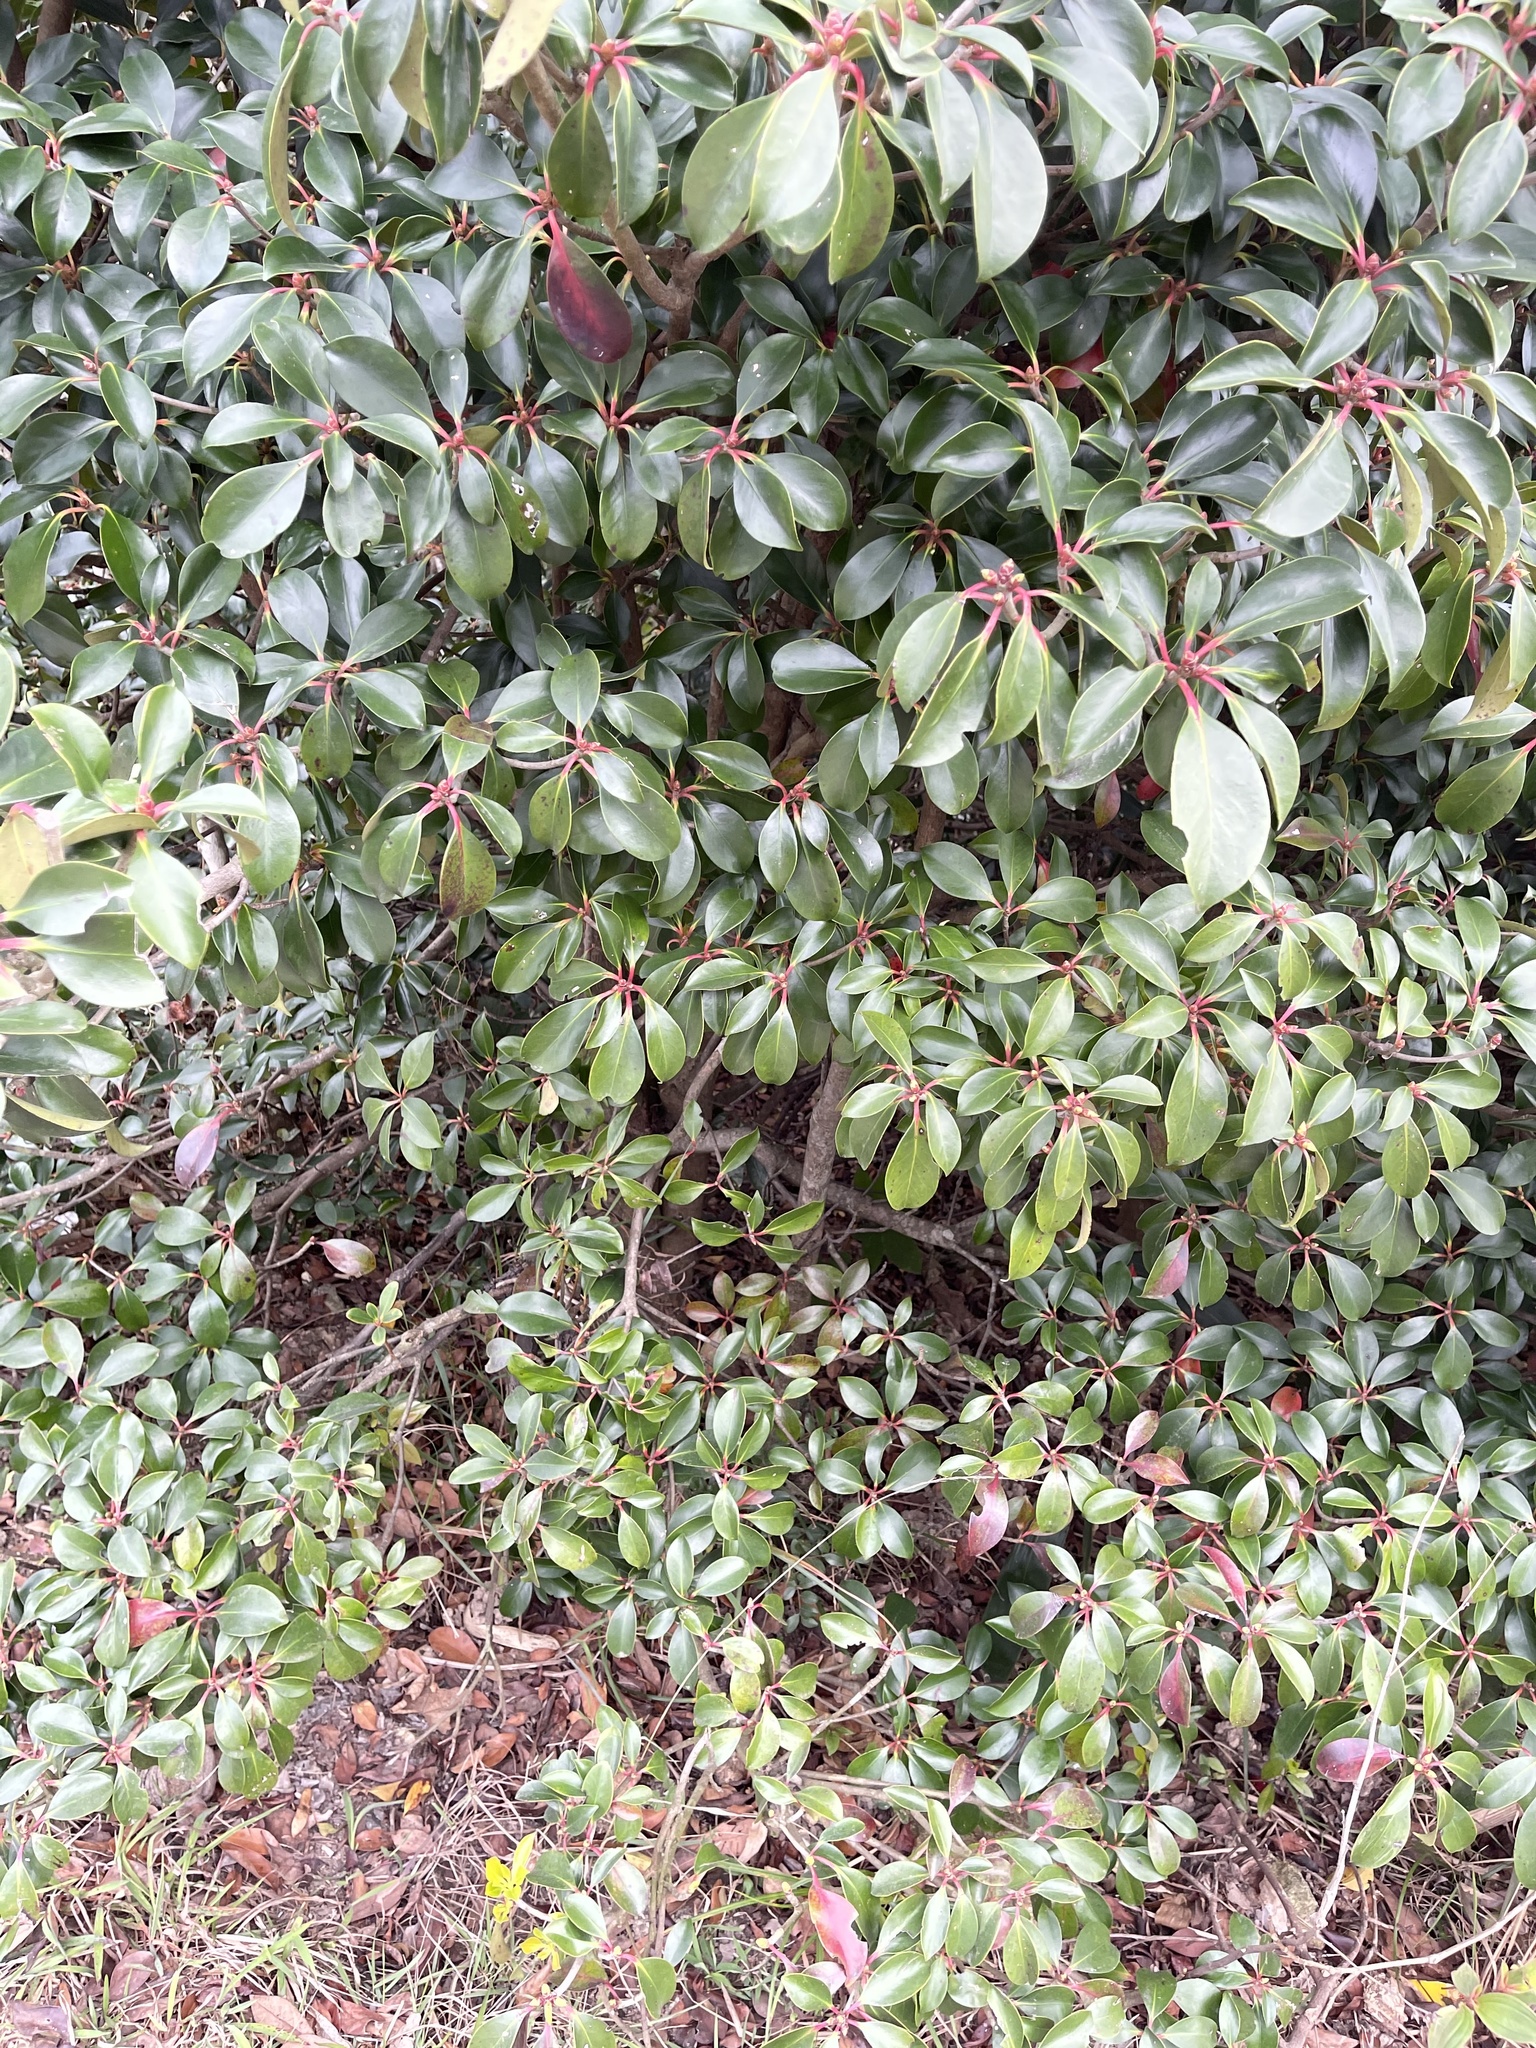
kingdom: Plantae
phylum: Tracheophyta
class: Magnoliopsida
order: Ericales
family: Pentaphylacaceae
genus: Ternstroemia
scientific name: Ternstroemia gymnanthera
